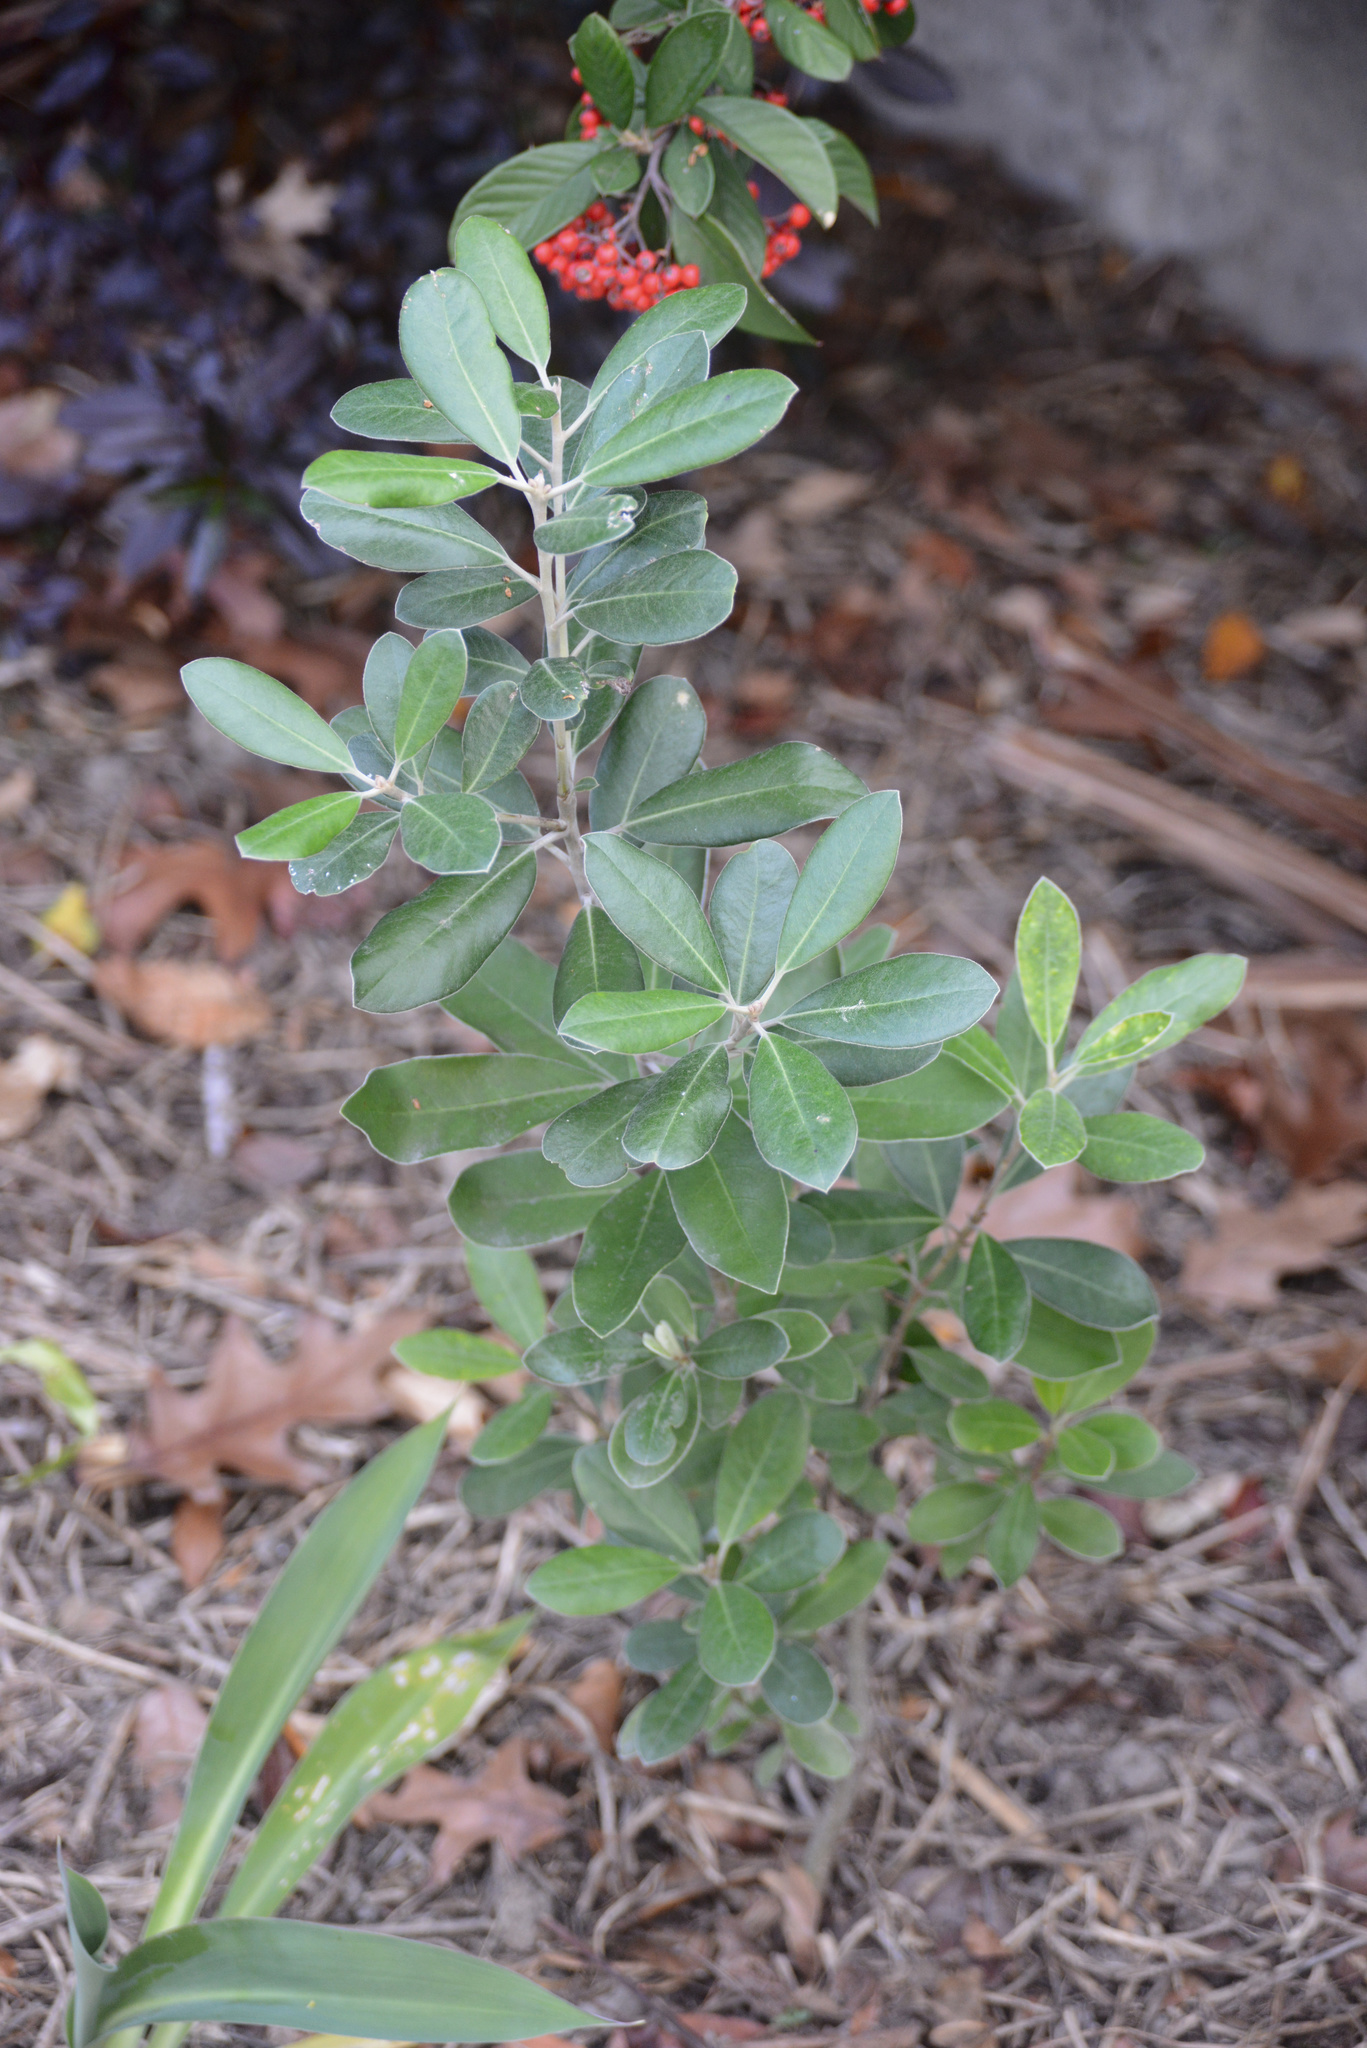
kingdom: Plantae
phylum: Tracheophyta
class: Magnoliopsida
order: Apiales
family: Pittosporaceae
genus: Pittosporum
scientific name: Pittosporum ralphii
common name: Ralph's desertwillow
